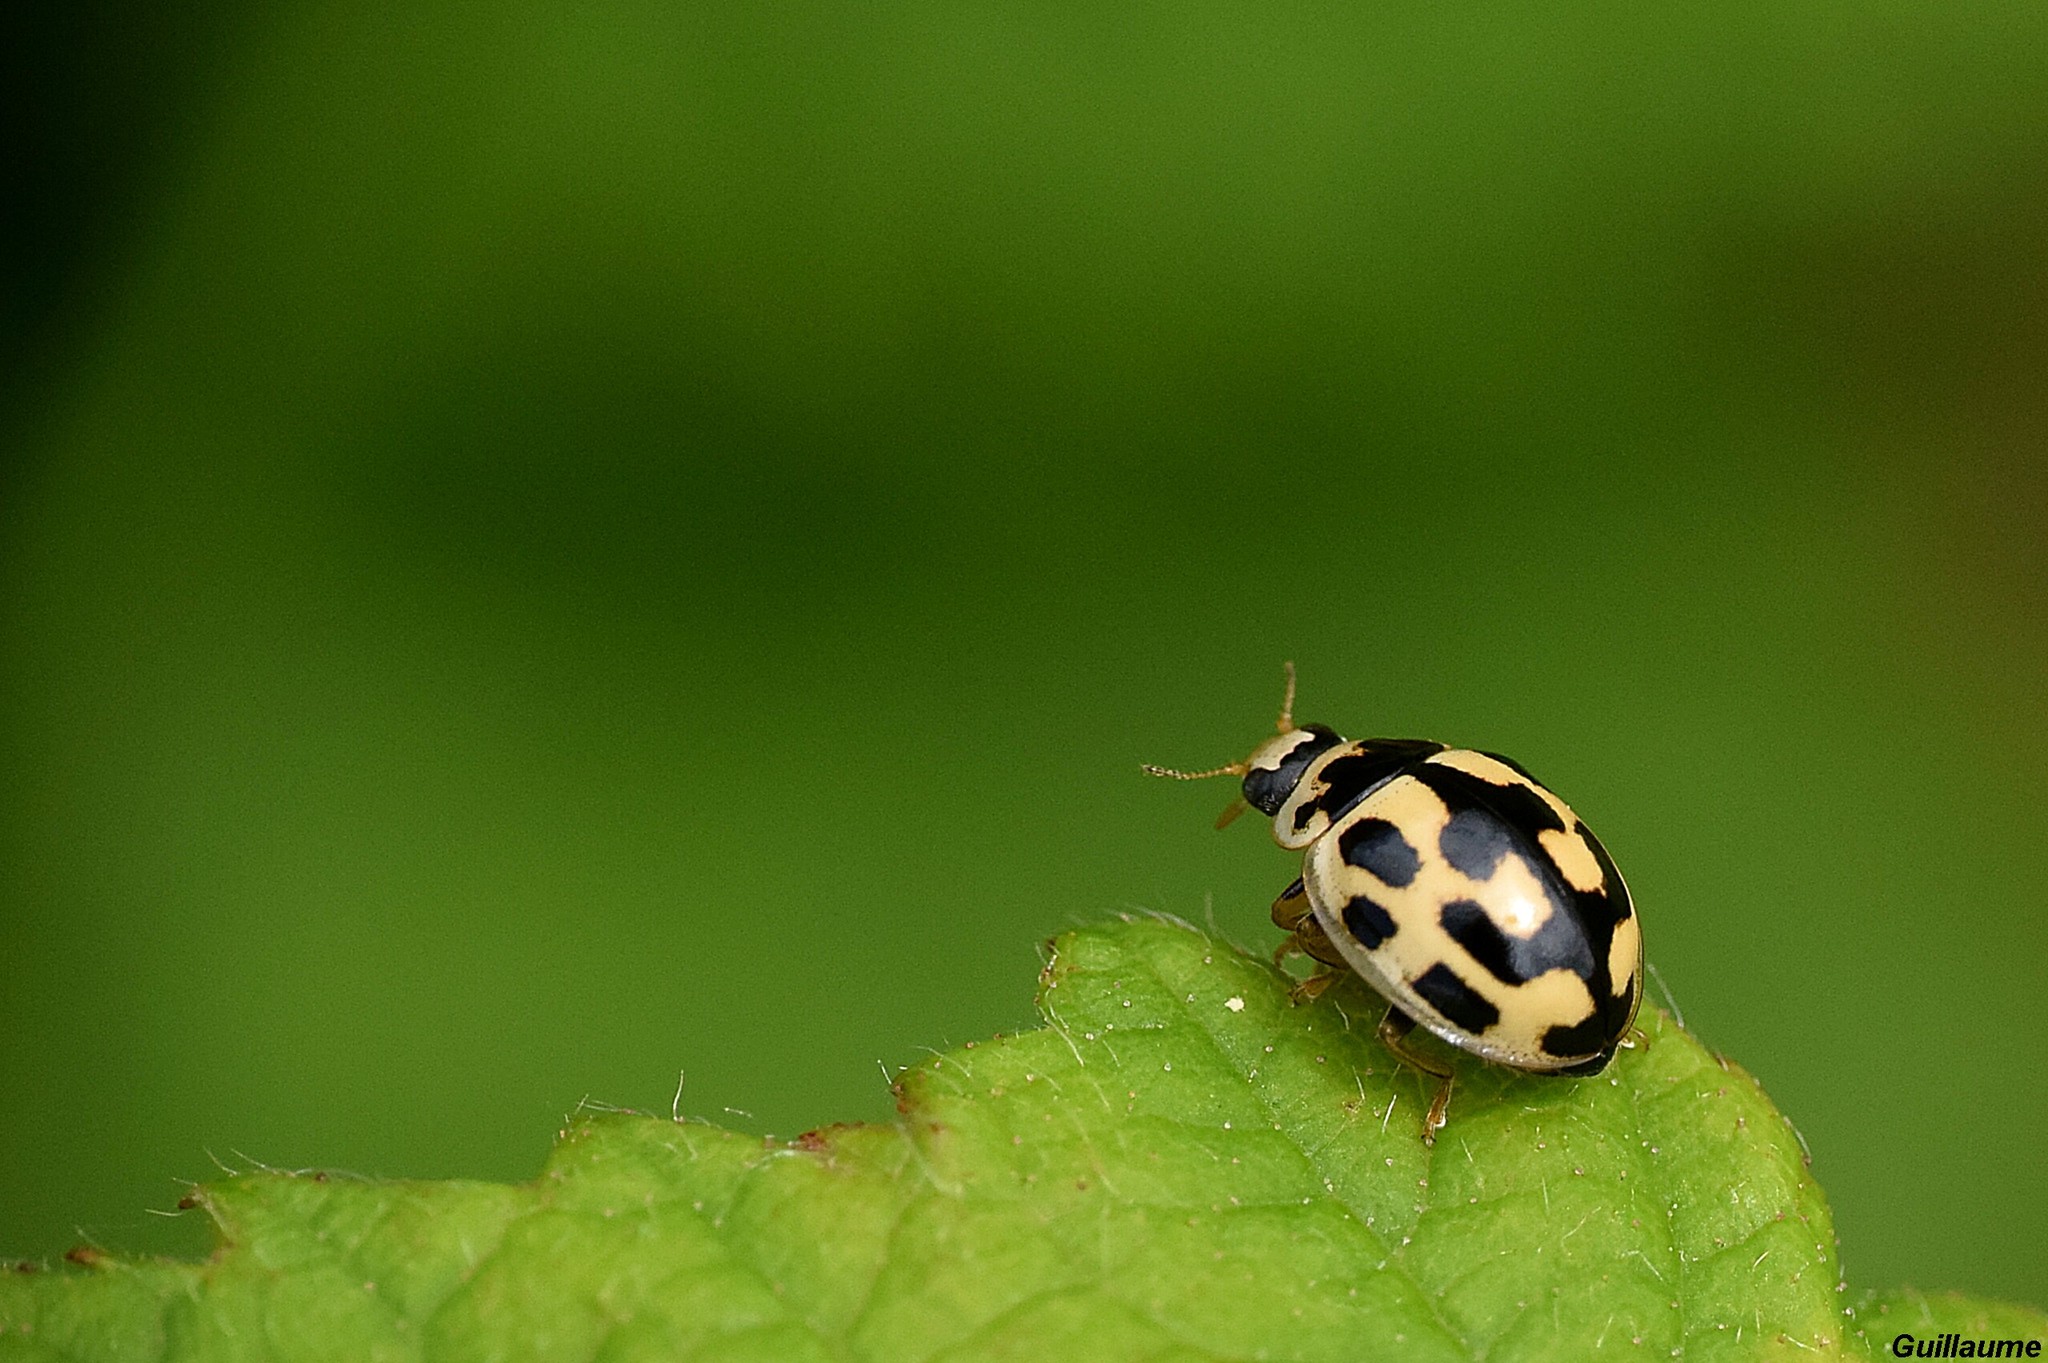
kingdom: Animalia
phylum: Arthropoda
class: Insecta
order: Coleoptera
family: Coccinellidae
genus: Propylaea
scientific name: Propylaea quatuordecimpunctata
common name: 14-spotted ladybird beetle
